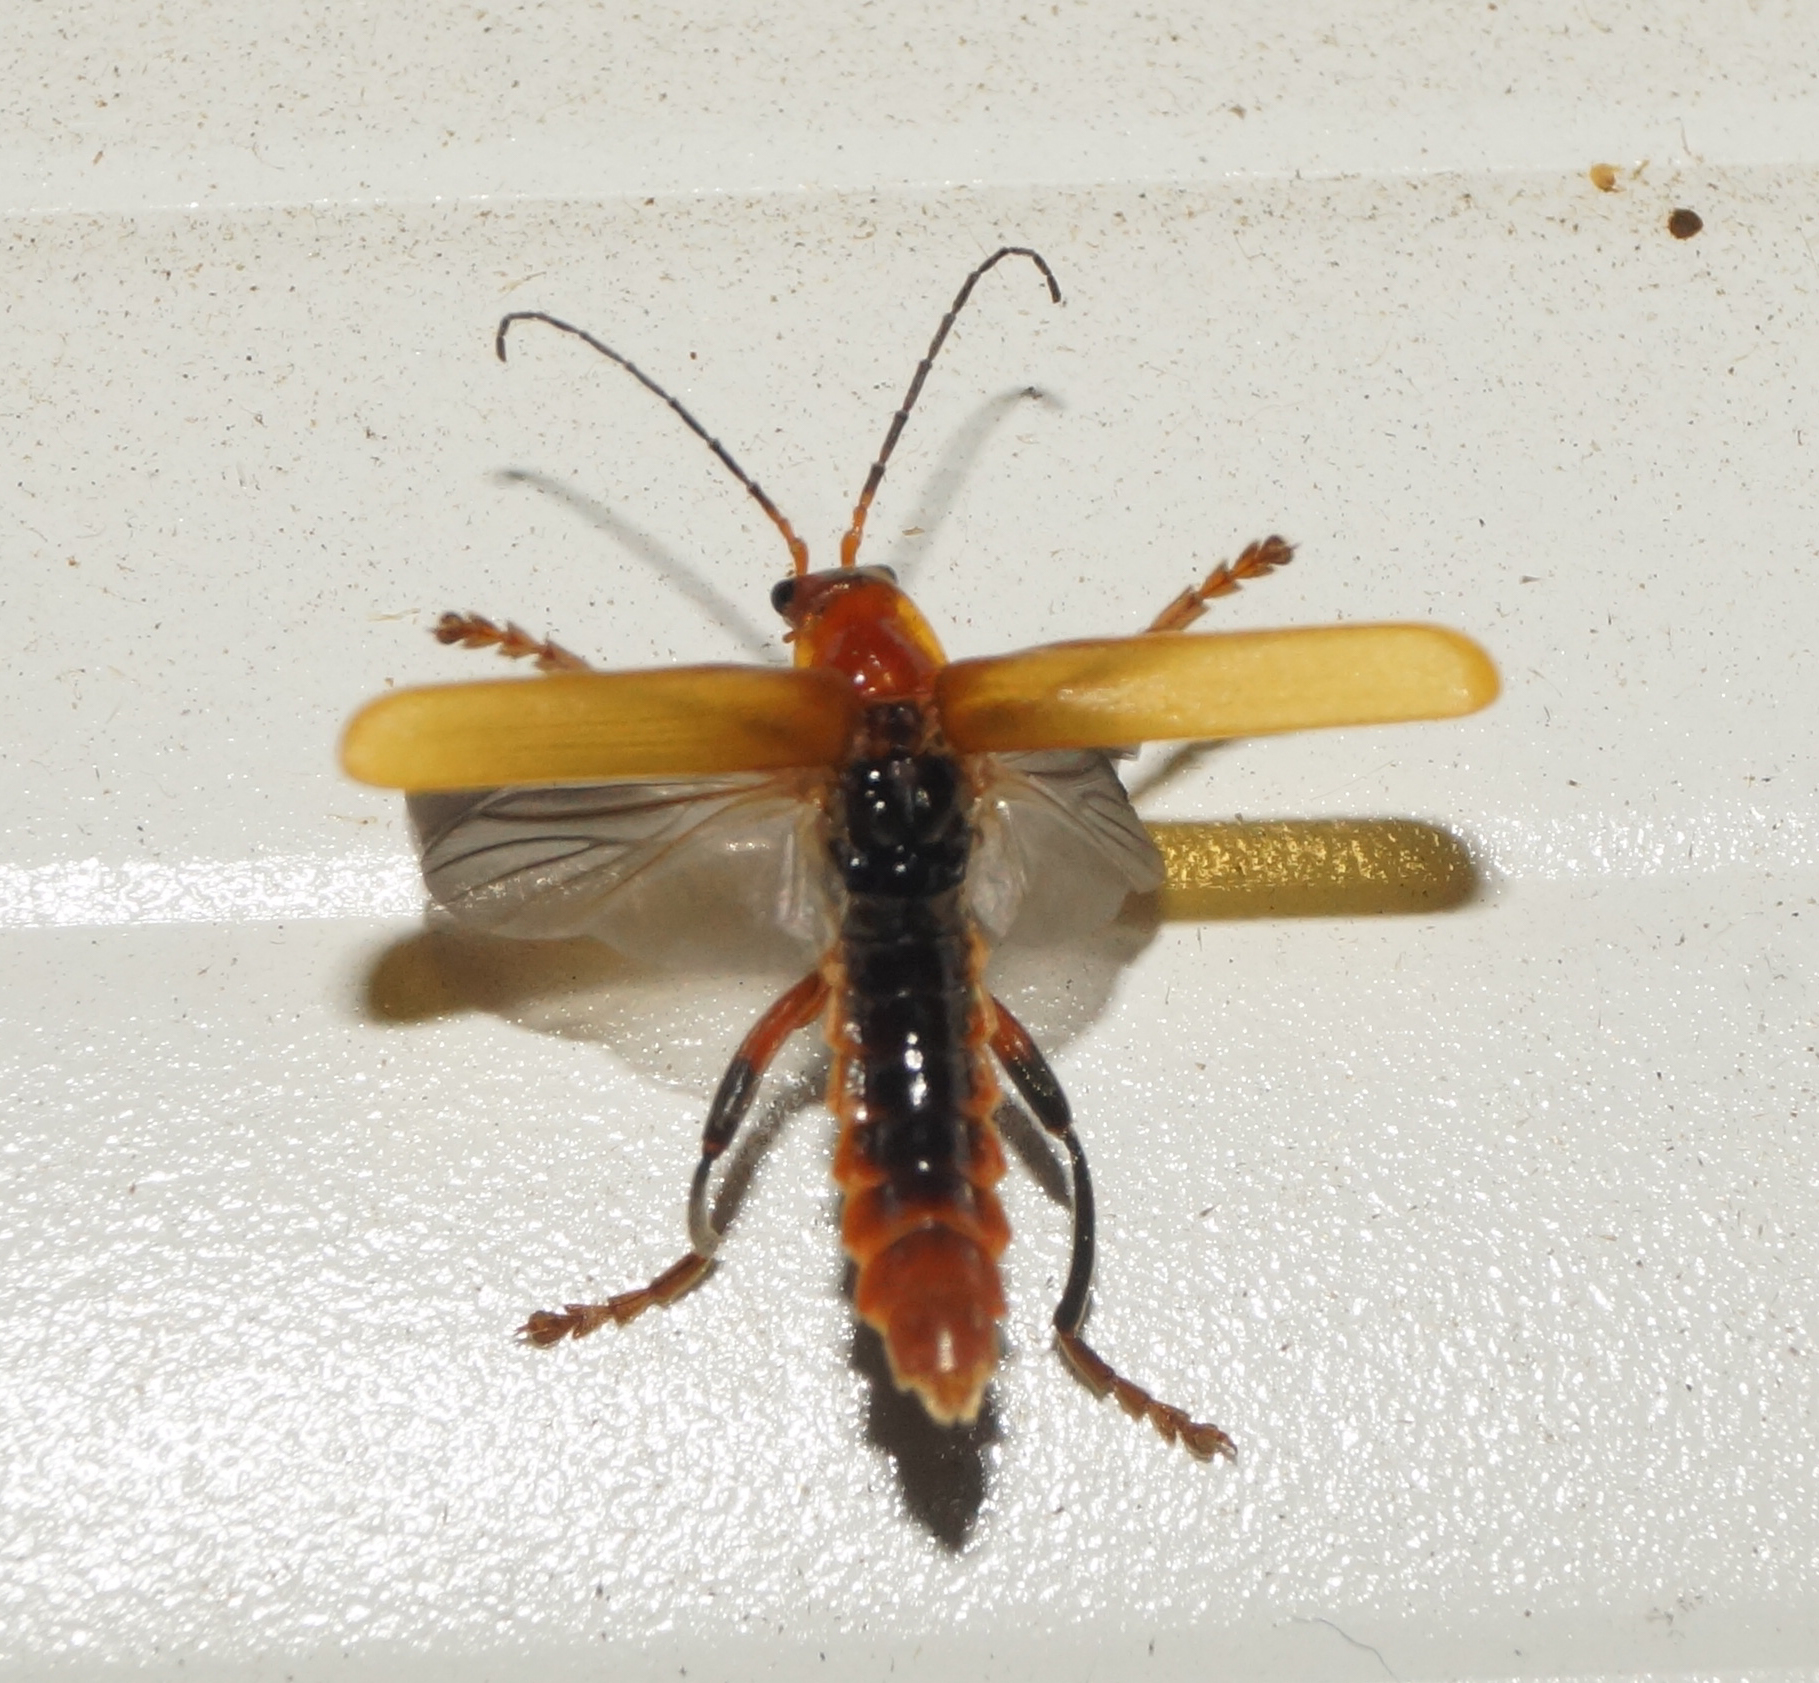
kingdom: Animalia
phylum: Arthropoda
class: Insecta
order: Coleoptera
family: Cantharidae
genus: Cantharis
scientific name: Cantharis livida
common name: Livid soldier beetle
